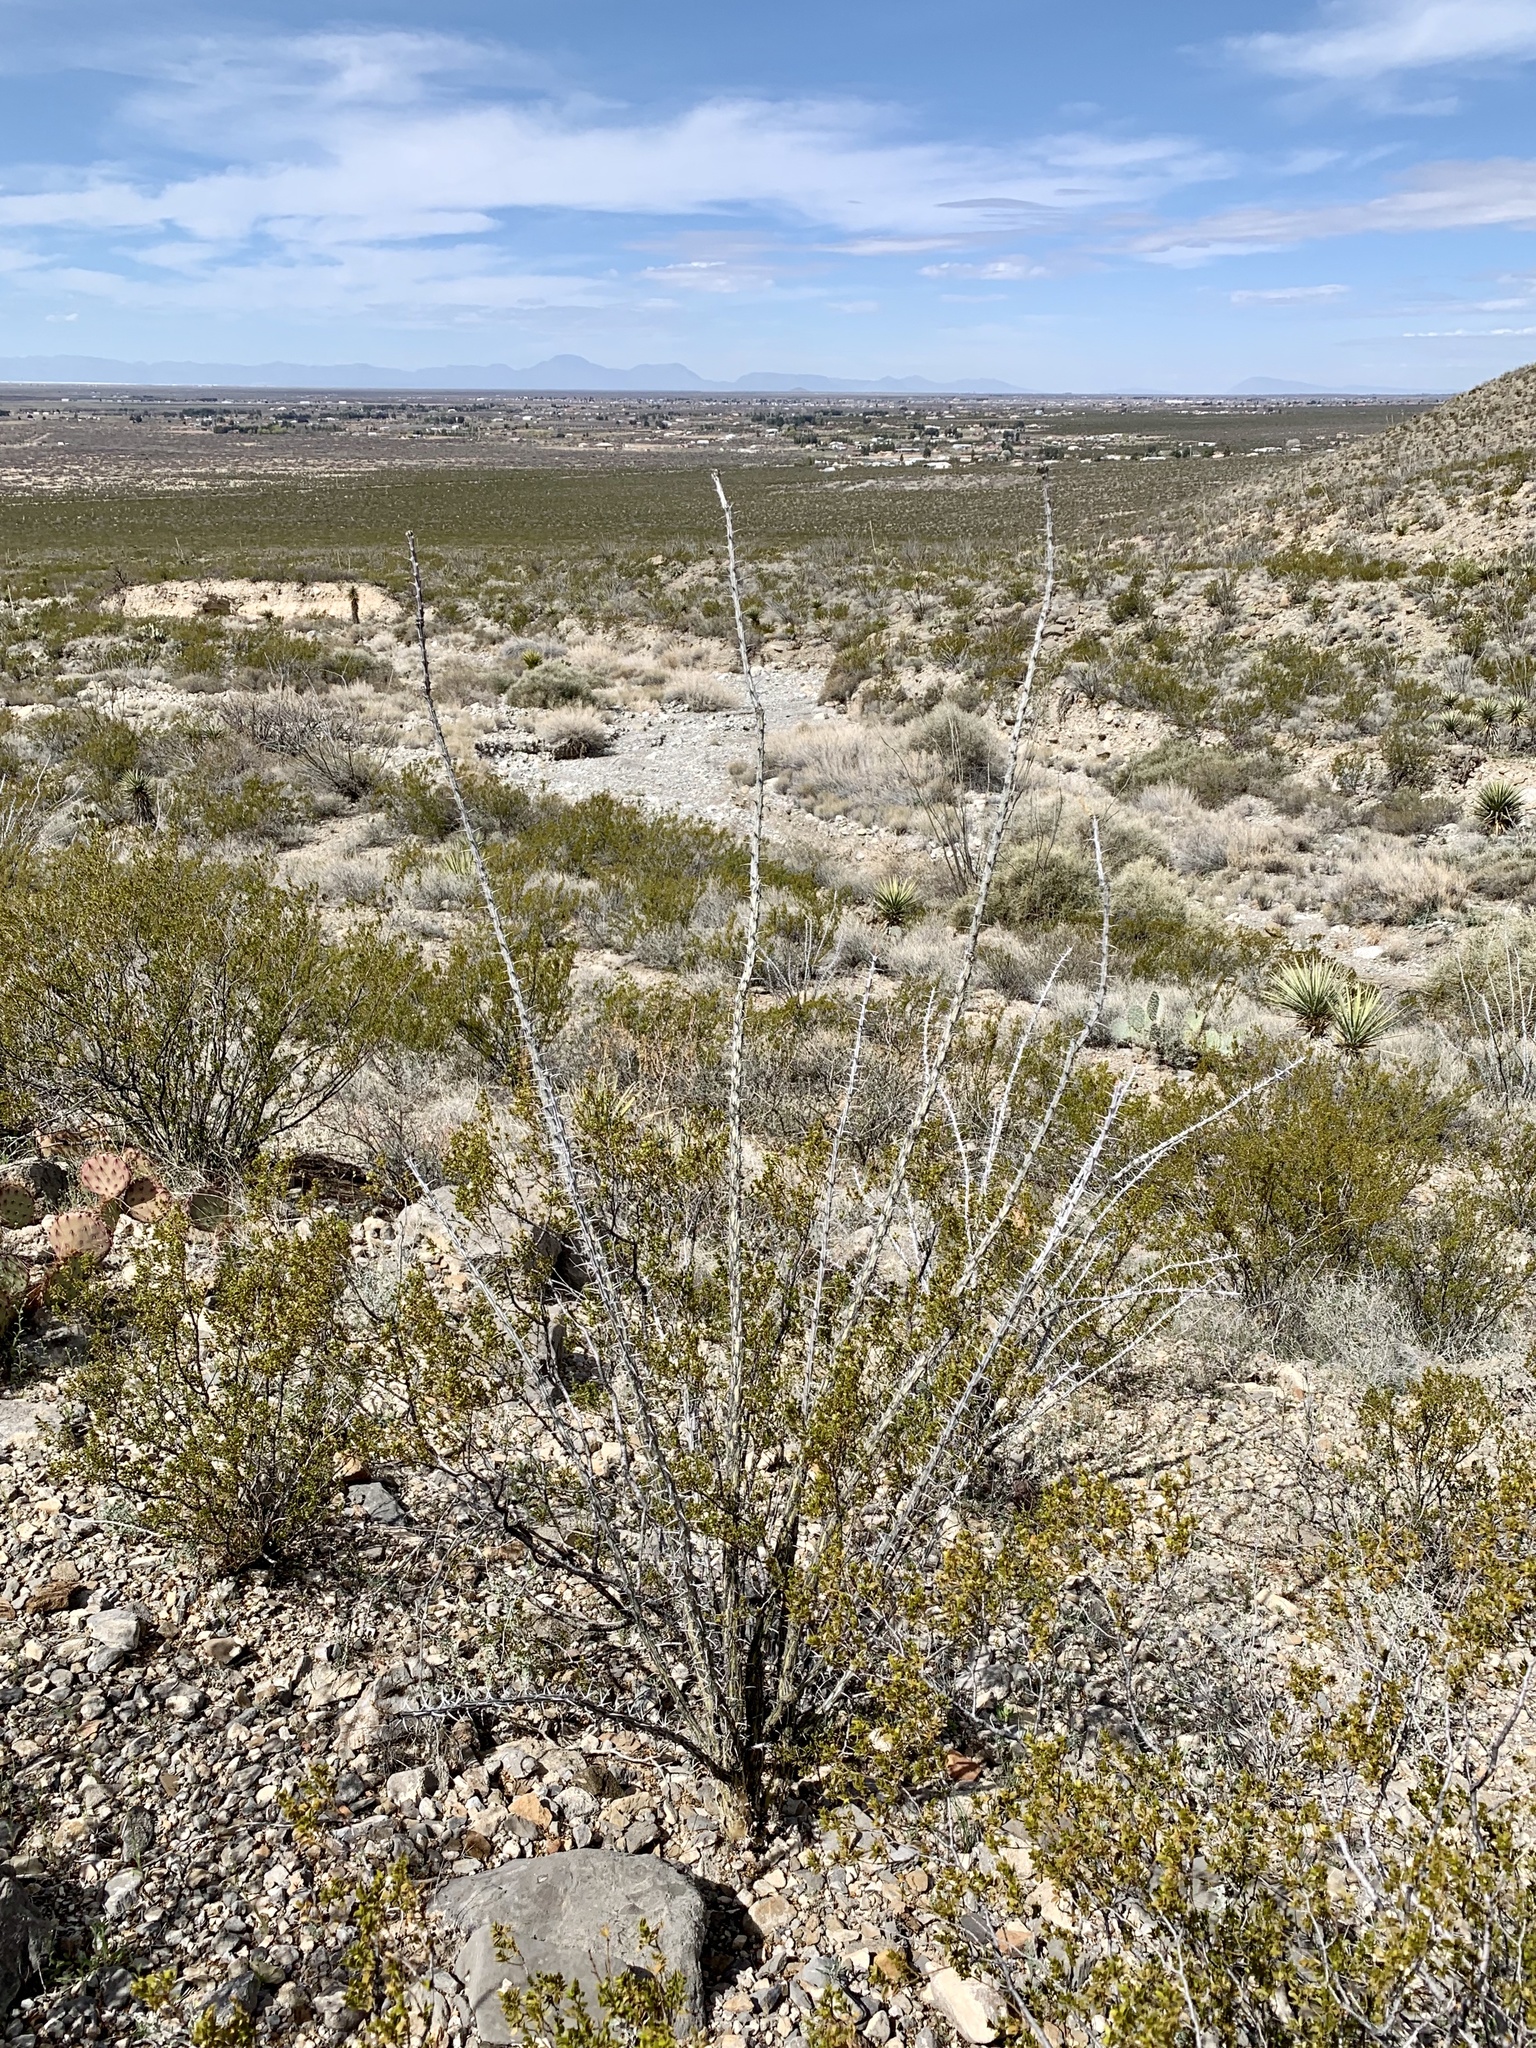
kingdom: Plantae
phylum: Tracheophyta
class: Magnoliopsida
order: Ericales
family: Fouquieriaceae
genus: Fouquieria
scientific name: Fouquieria splendens
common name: Vine-cactus
